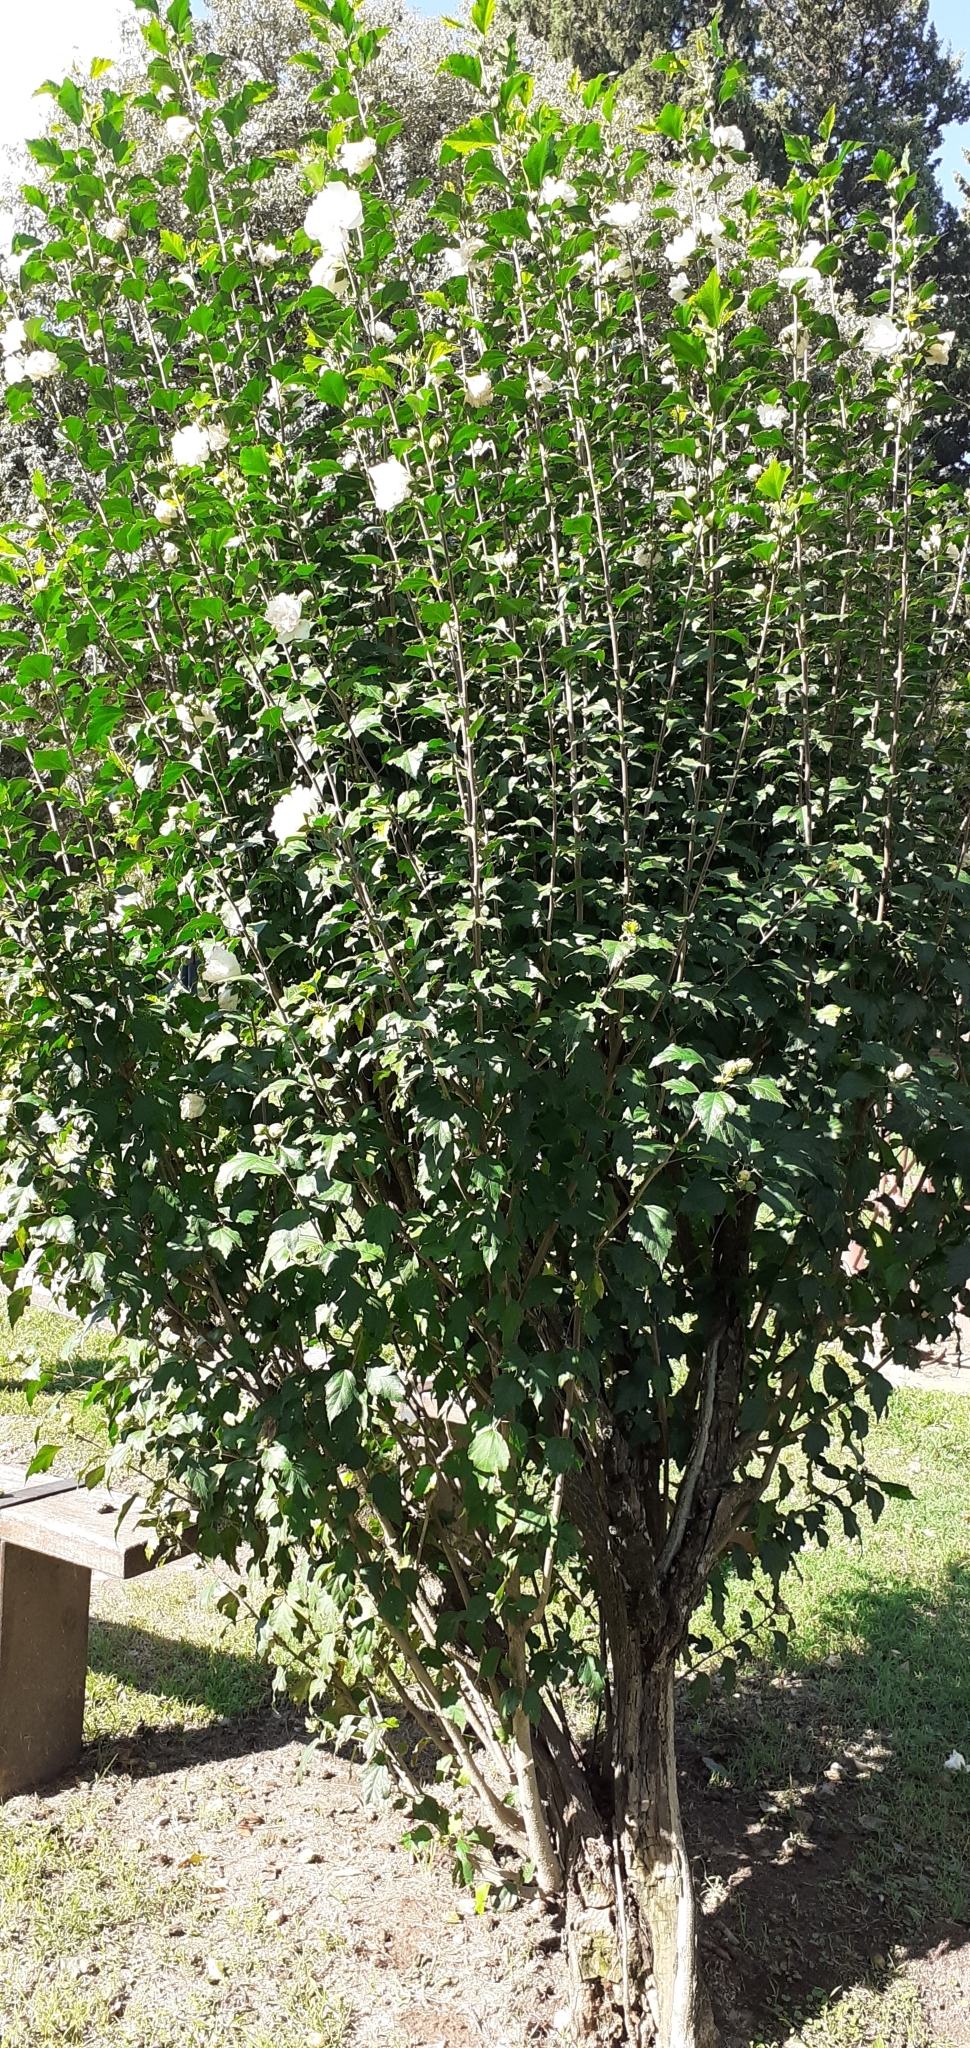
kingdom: Plantae
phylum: Tracheophyta
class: Magnoliopsida
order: Malvales
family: Malvaceae
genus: Hibiscus
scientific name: Hibiscus syriacus
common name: Syrian ketmia
